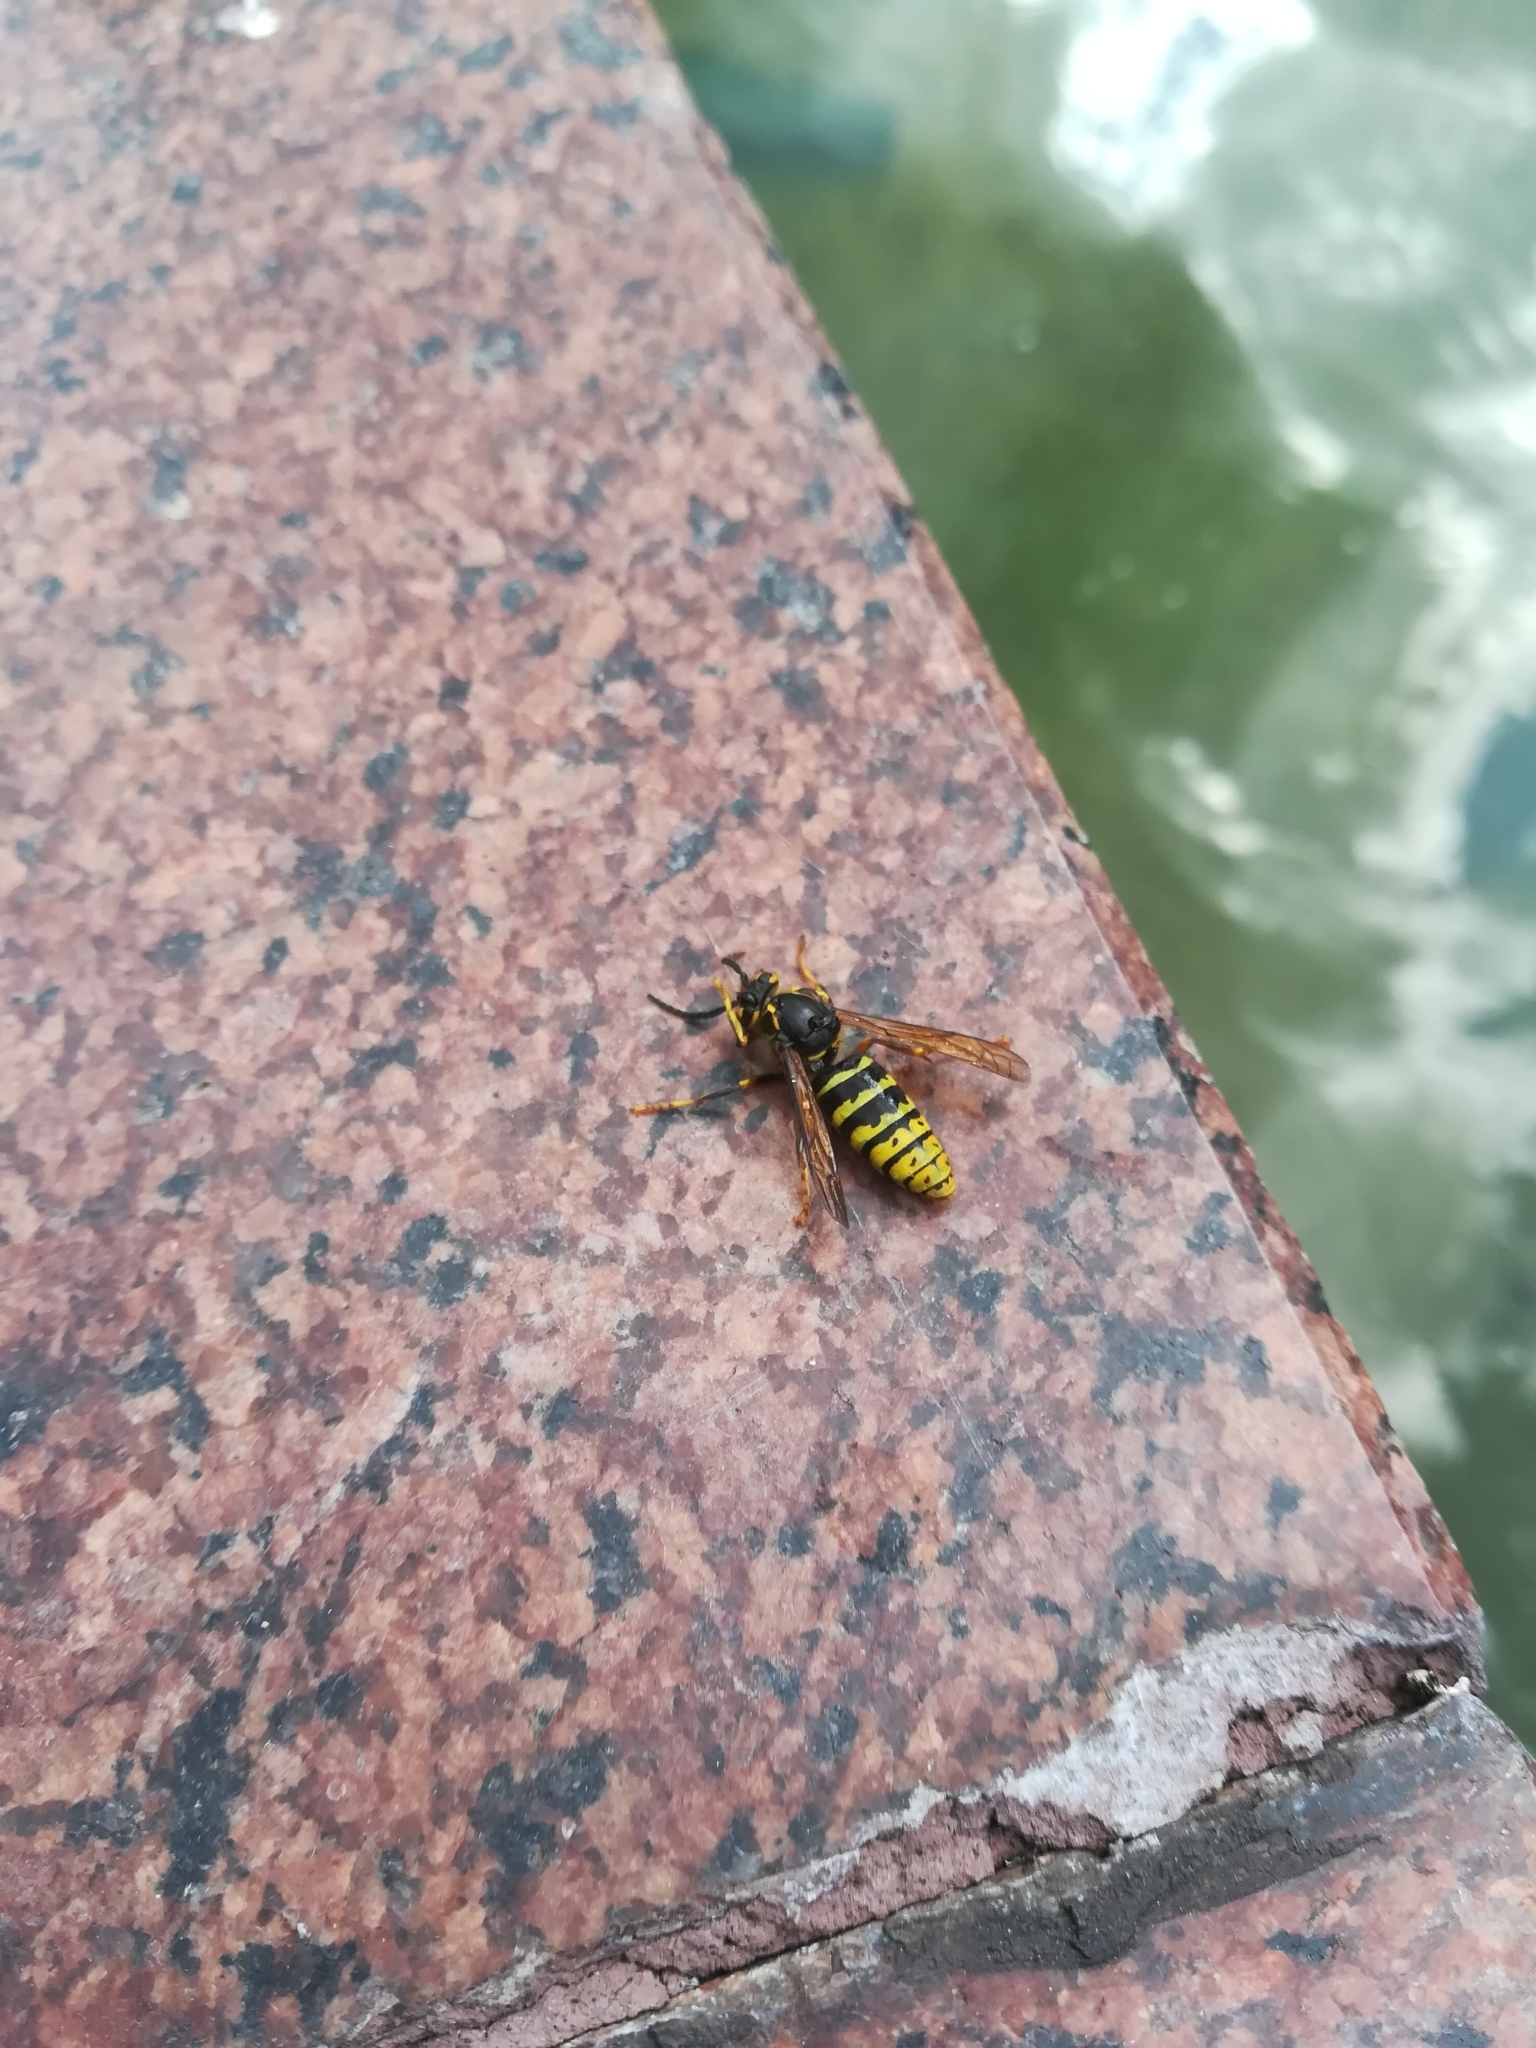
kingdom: Animalia
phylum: Arthropoda
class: Insecta
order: Hymenoptera
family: Vespidae
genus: Dolichovespula
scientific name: Dolichovespula media
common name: Median wasp
